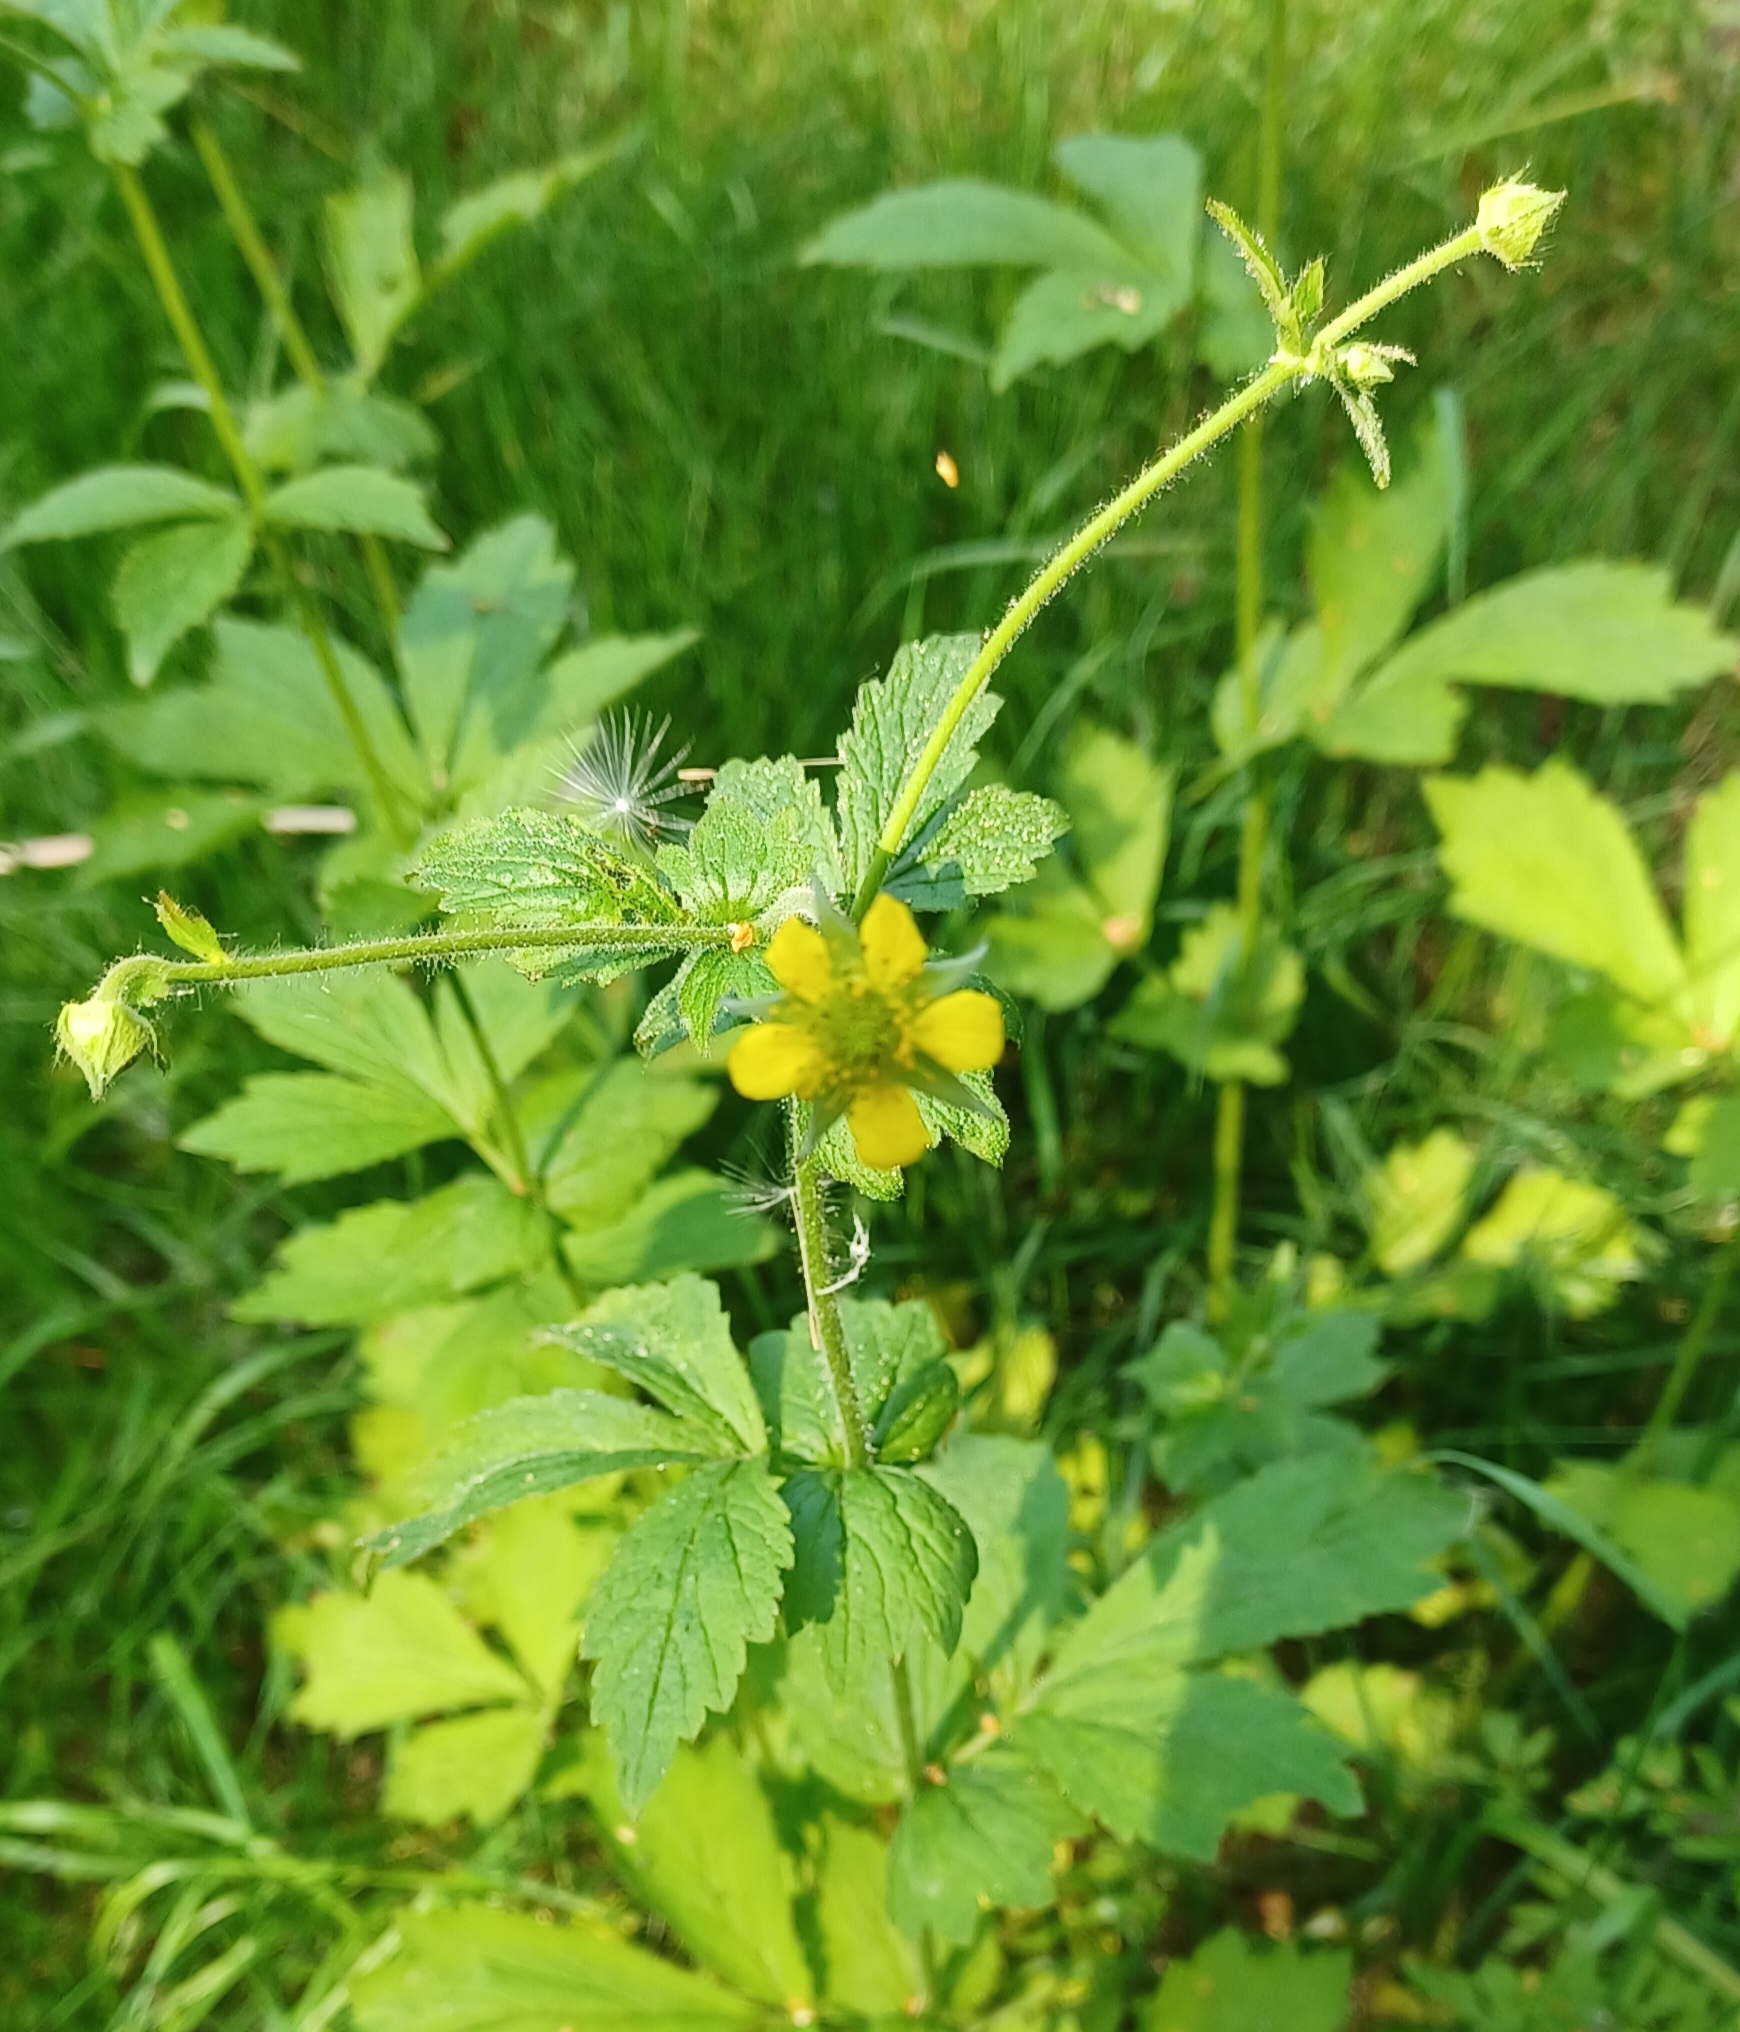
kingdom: Plantae
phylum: Tracheophyta
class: Magnoliopsida
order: Rosales
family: Rosaceae
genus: Geum
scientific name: Geum urbanum
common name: Wood avens
